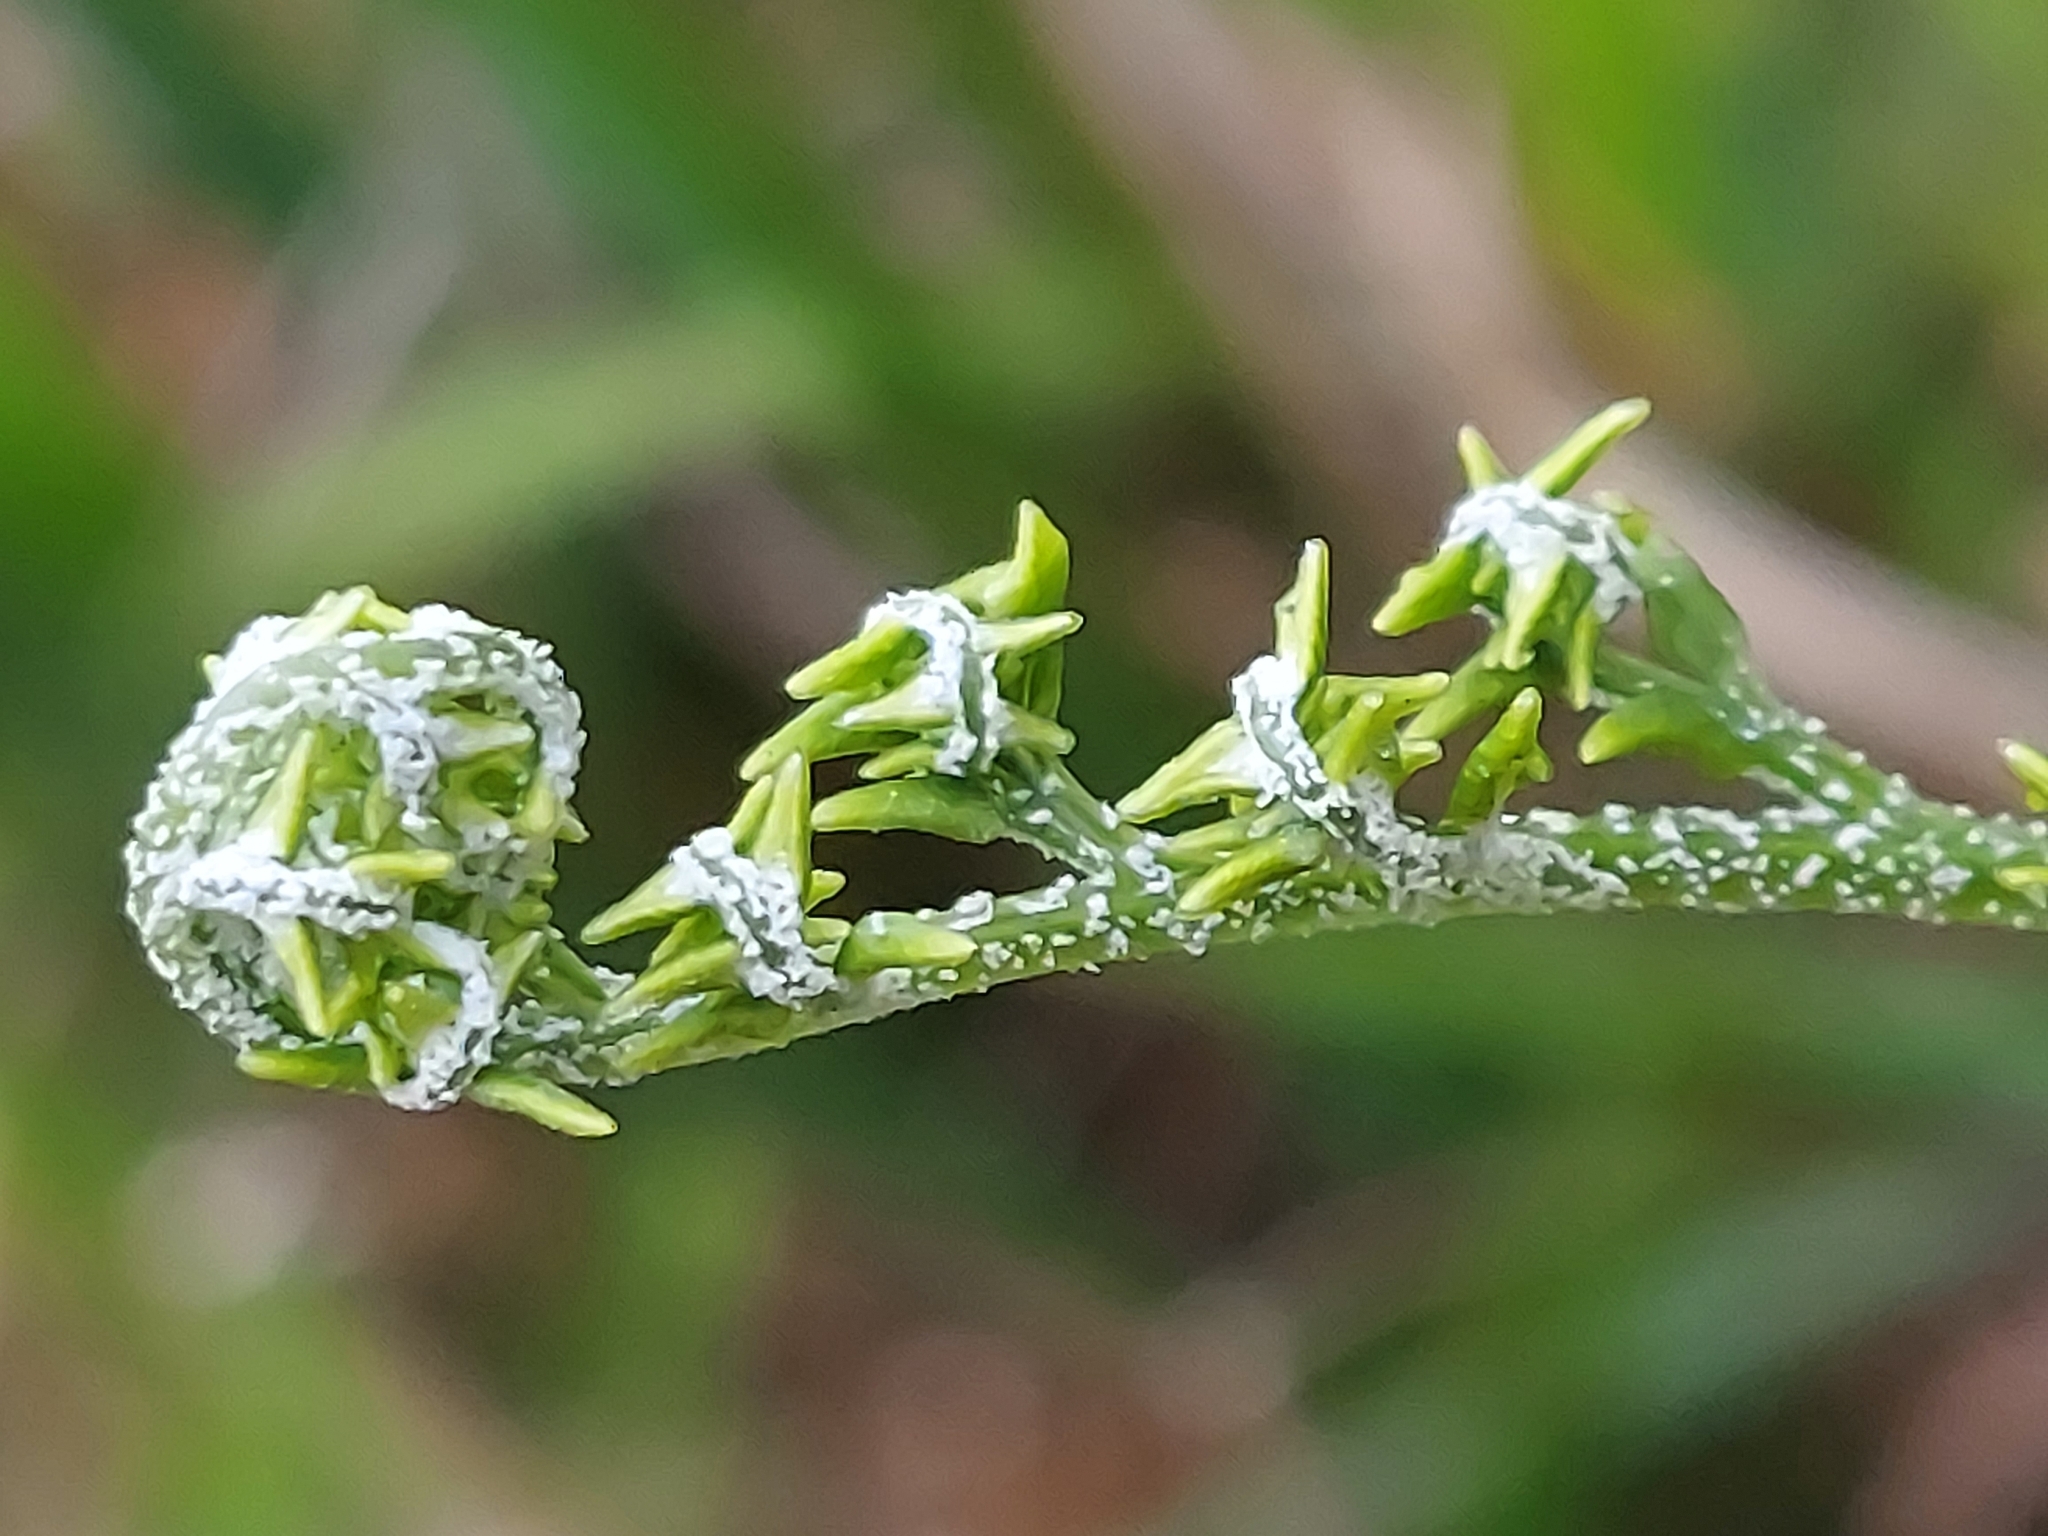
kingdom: Plantae
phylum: Tracheophyta
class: Polypodiopsida
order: Polypodiales
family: Pteridaceae
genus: Pityrogramma
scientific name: Pityrogramma calomelanos
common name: Dixie silverback fern
